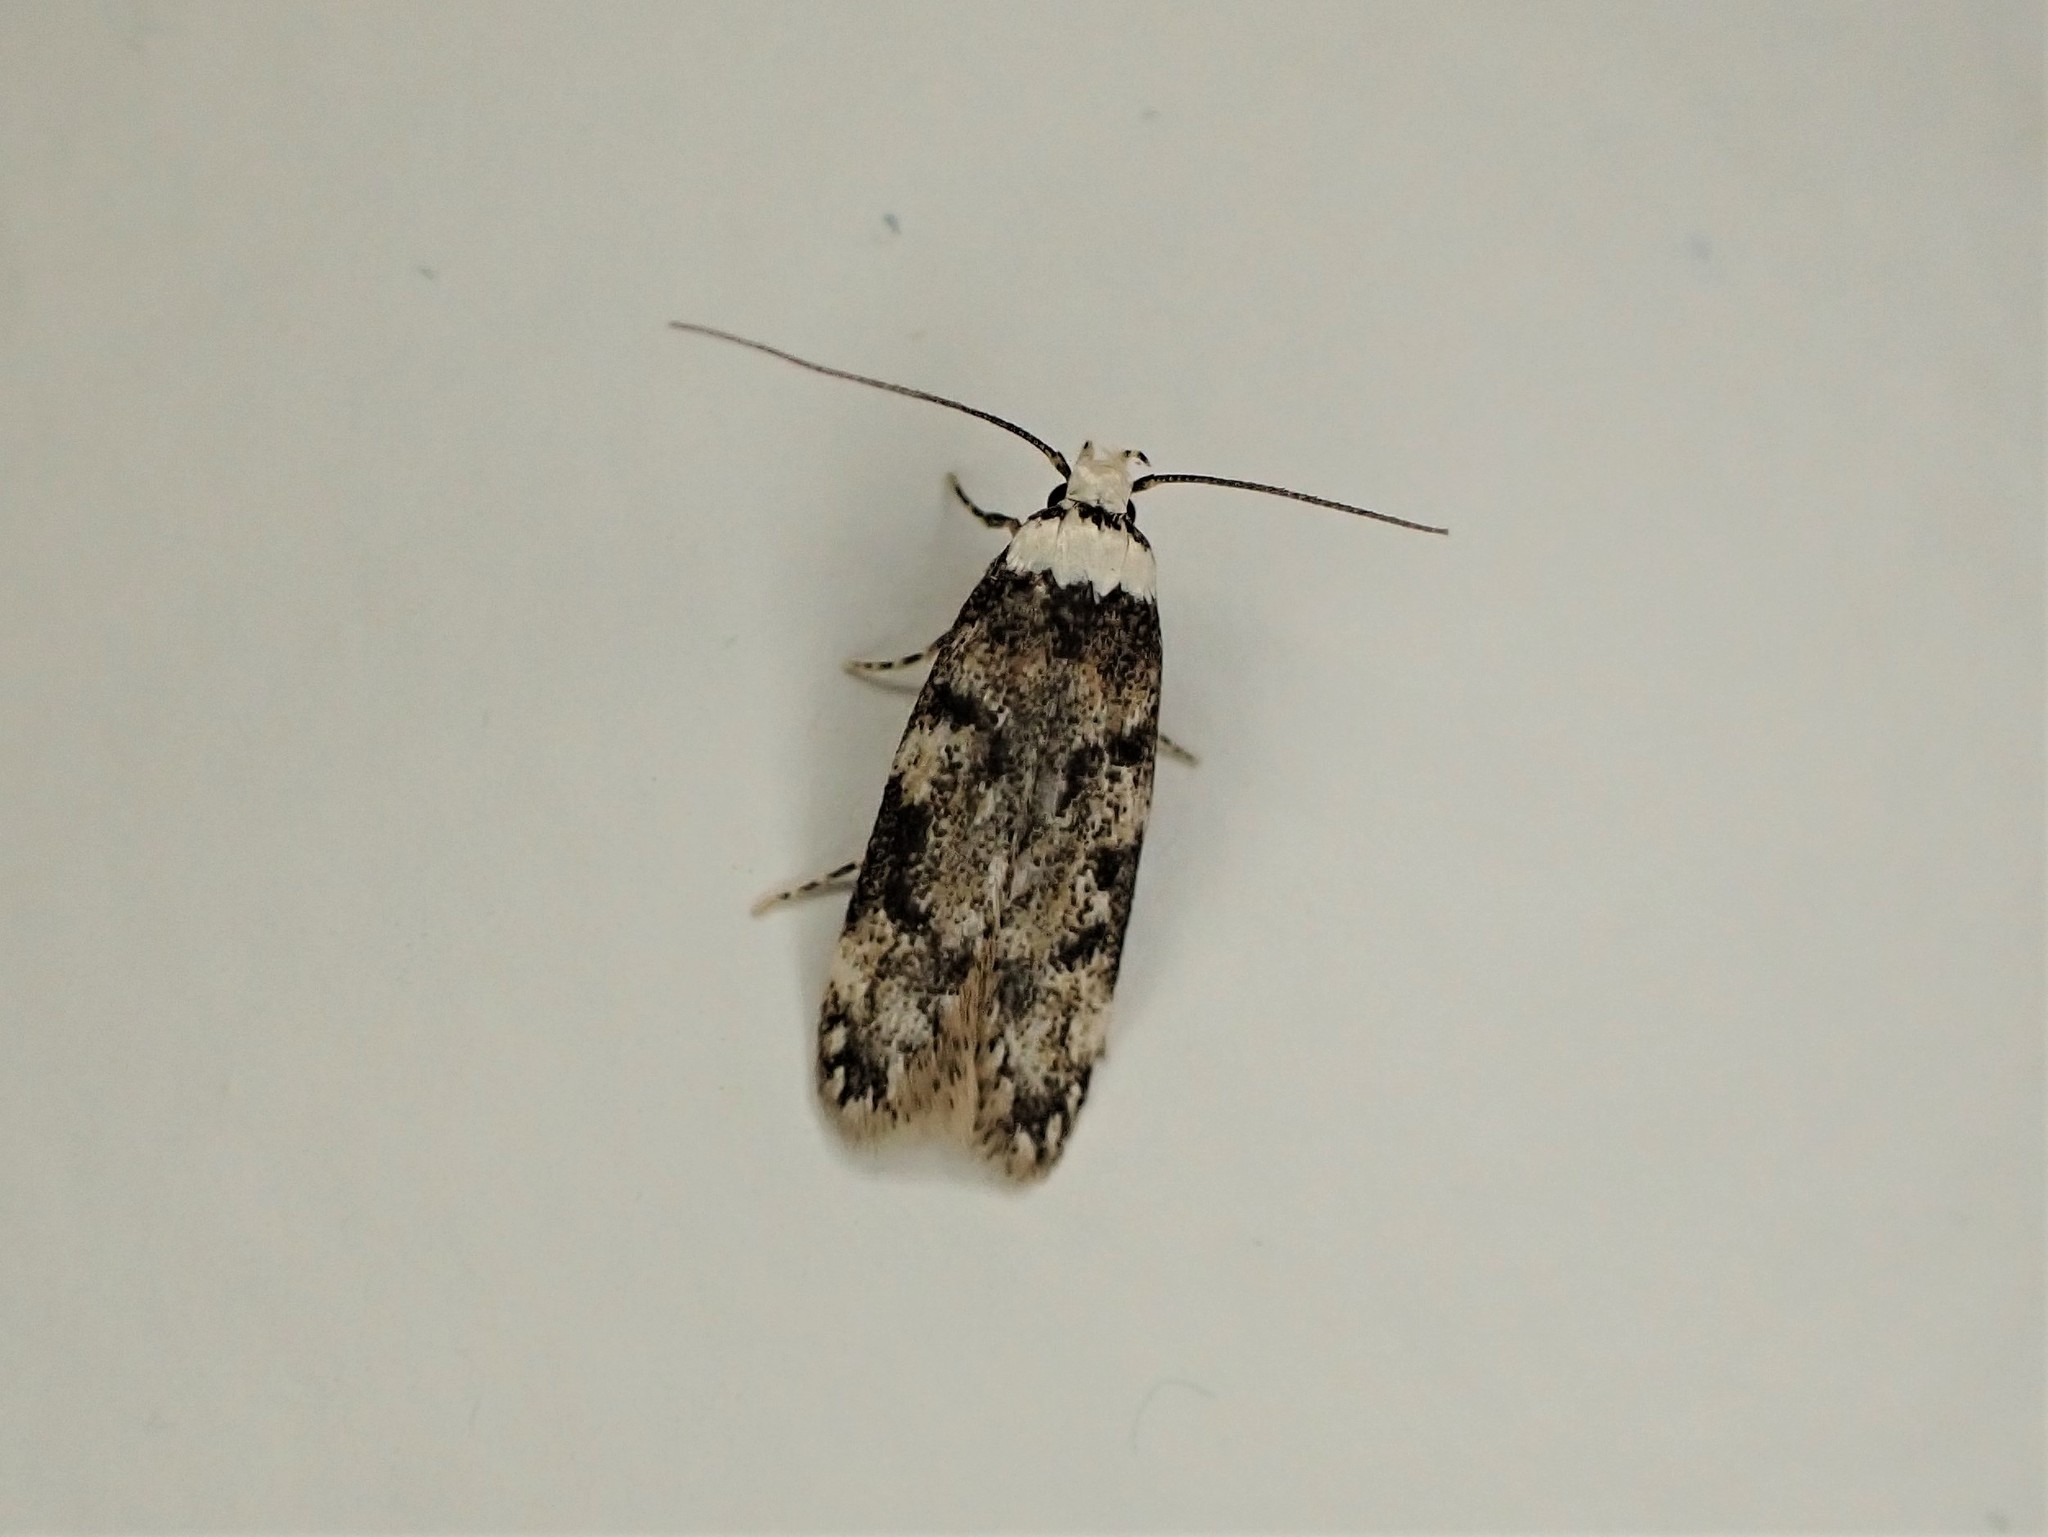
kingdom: Animalia
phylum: Arthropoda
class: Insecta
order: Lepidoptera
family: Oecophoridae
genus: Endrosis
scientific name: Endrosis sarcitrella
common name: White-shouldered house moth
